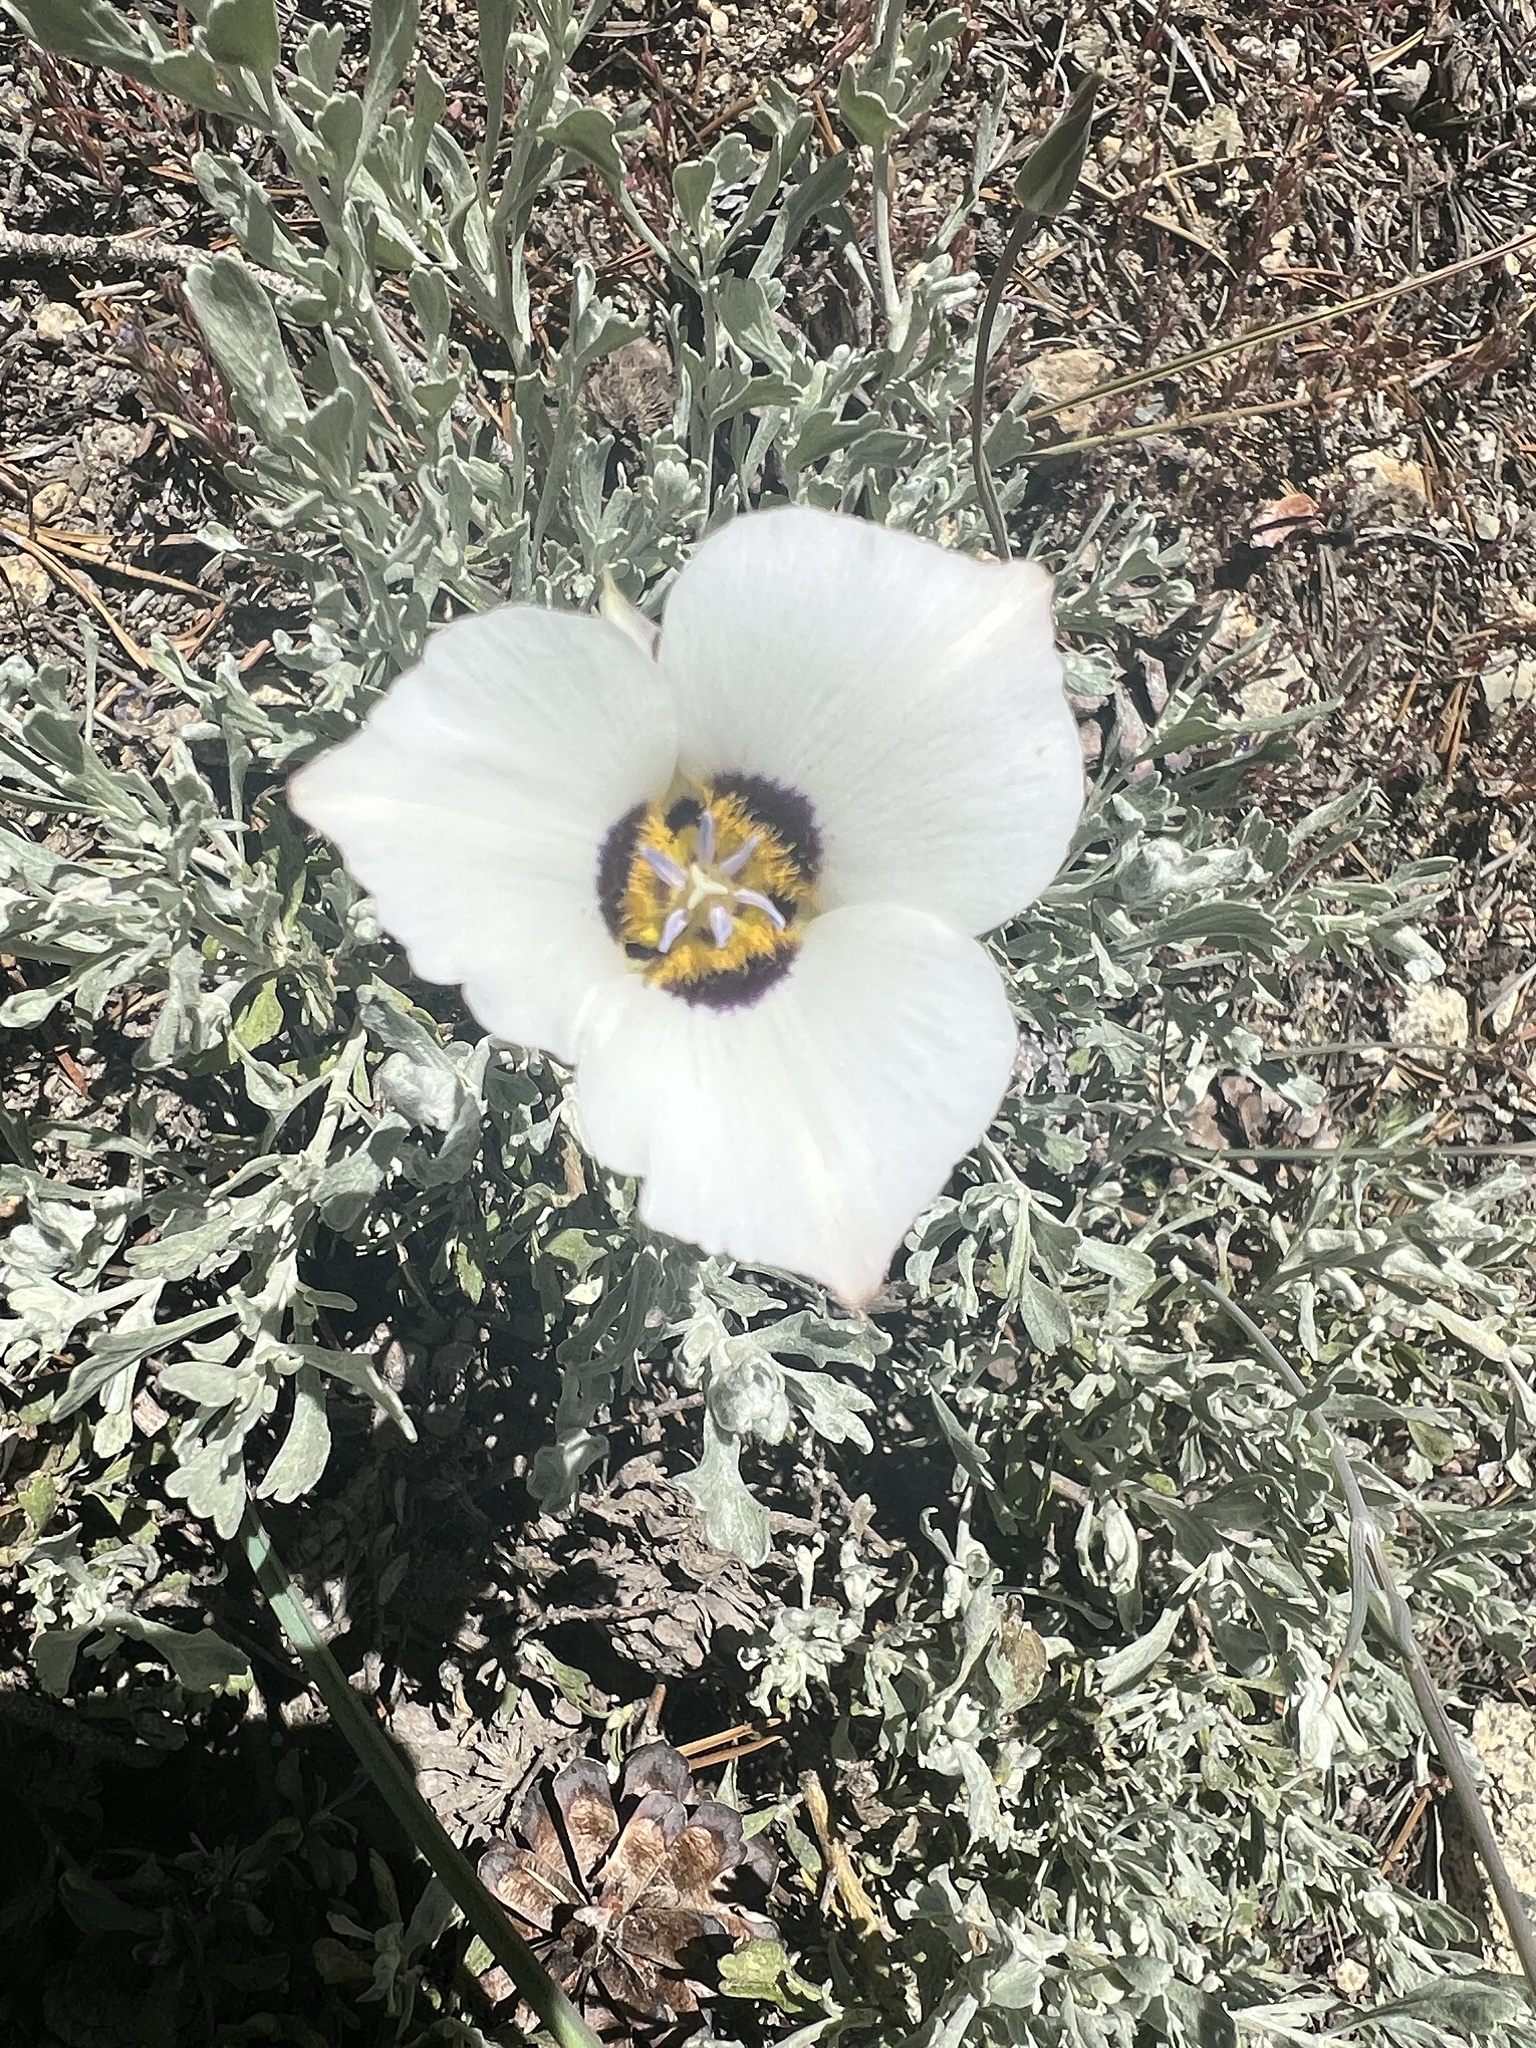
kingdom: Plantae
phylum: Tracheophyta
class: Liliopsida
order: Liliales
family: Liliaceae
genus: Calochortus
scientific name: Calochortus leichtlinii
